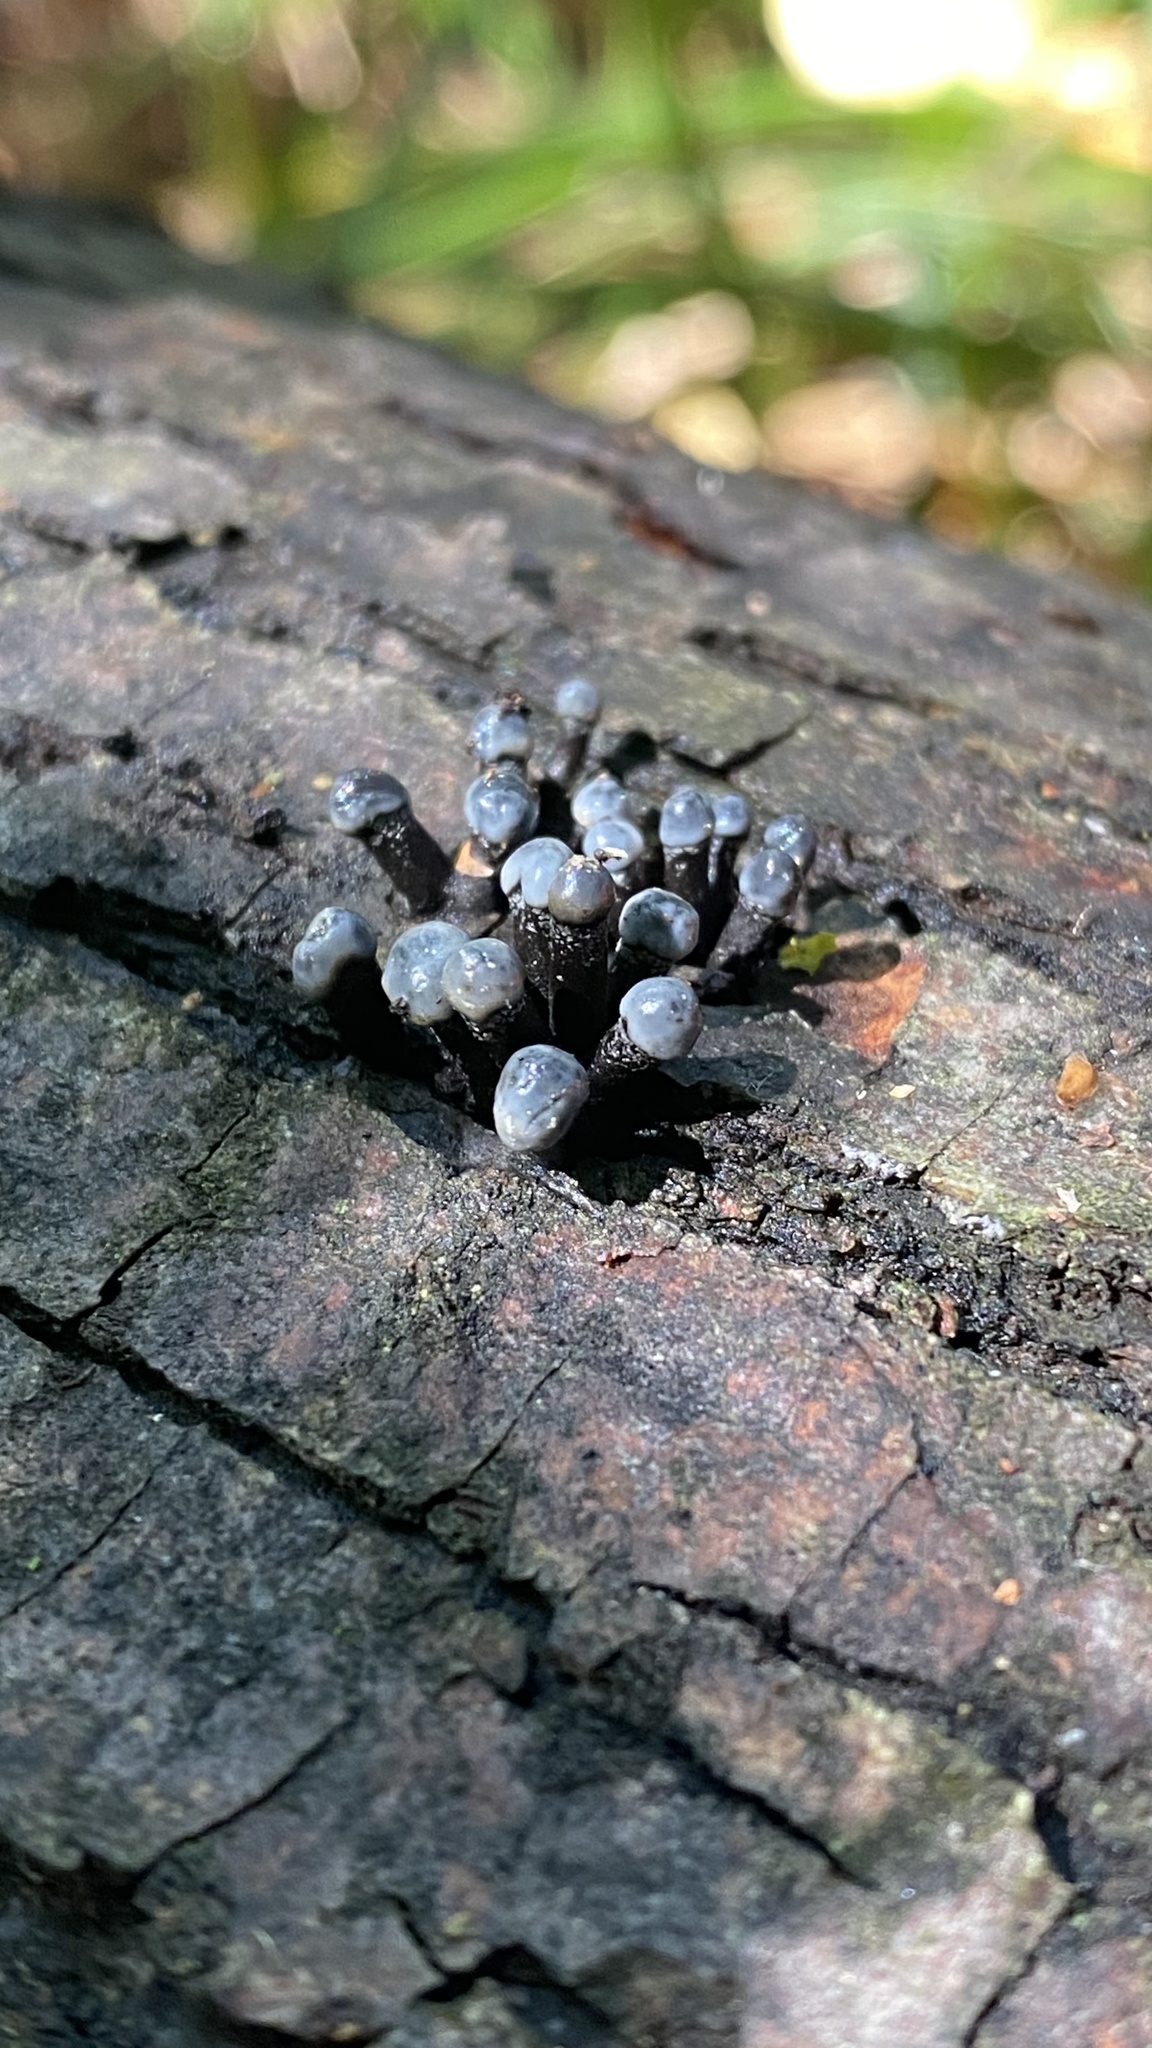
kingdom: Fungi
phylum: Ascomycota
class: Leotiomycetes
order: Helotiales
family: Bulgariaceae
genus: Holwaya
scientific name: Holwaya mucida
